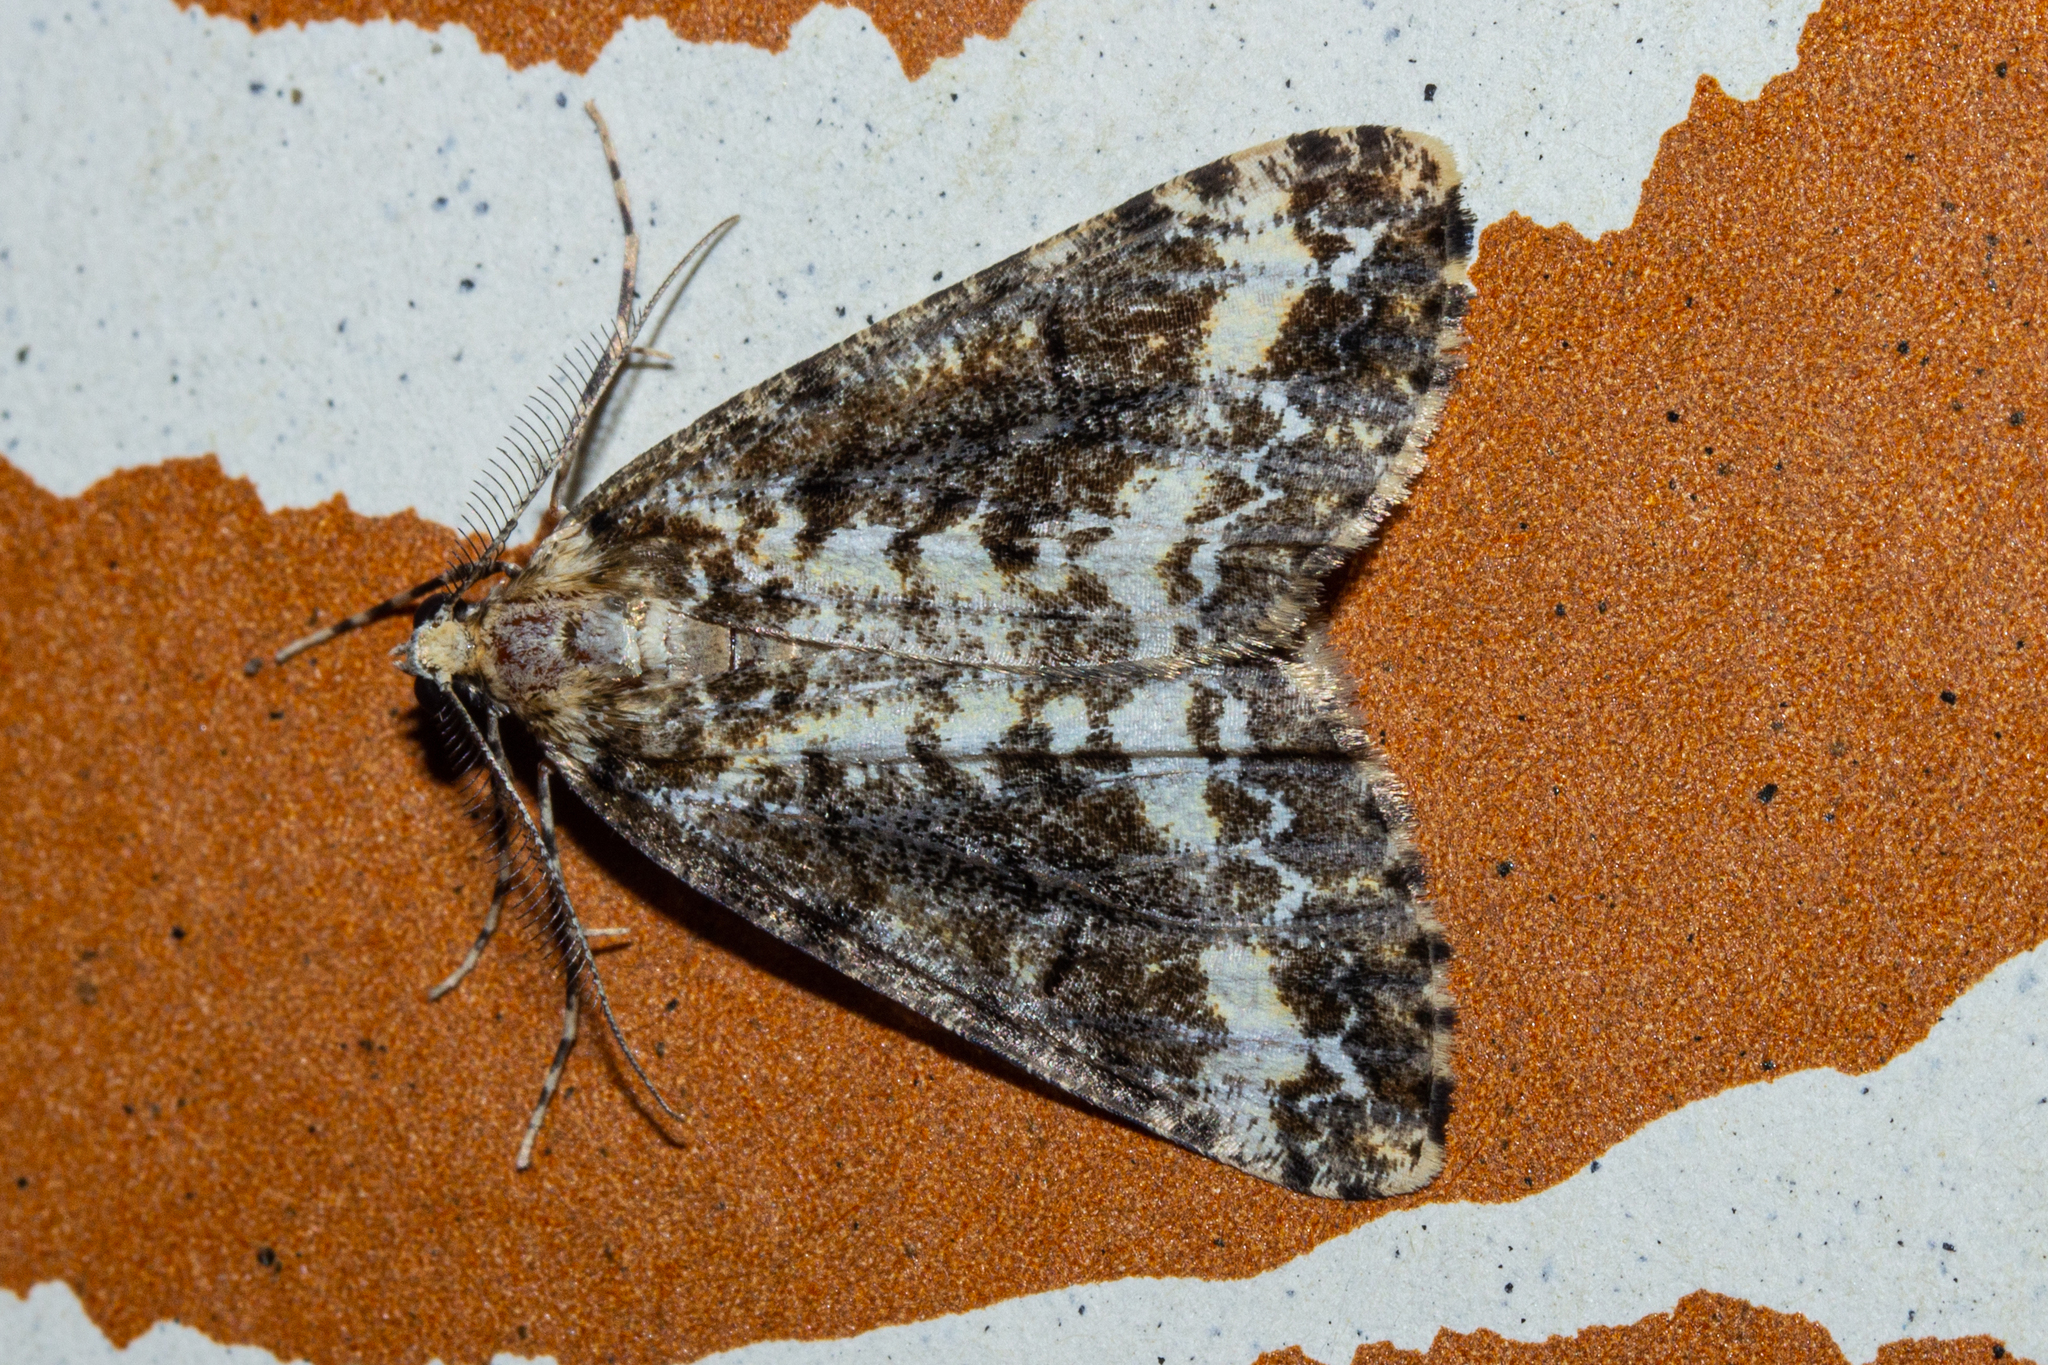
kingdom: Animalia
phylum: Arthropoda
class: Insecta
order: Lepidoptera
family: Geometridae
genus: Pseudocoremia
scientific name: Pseudocoremia leucelaea
